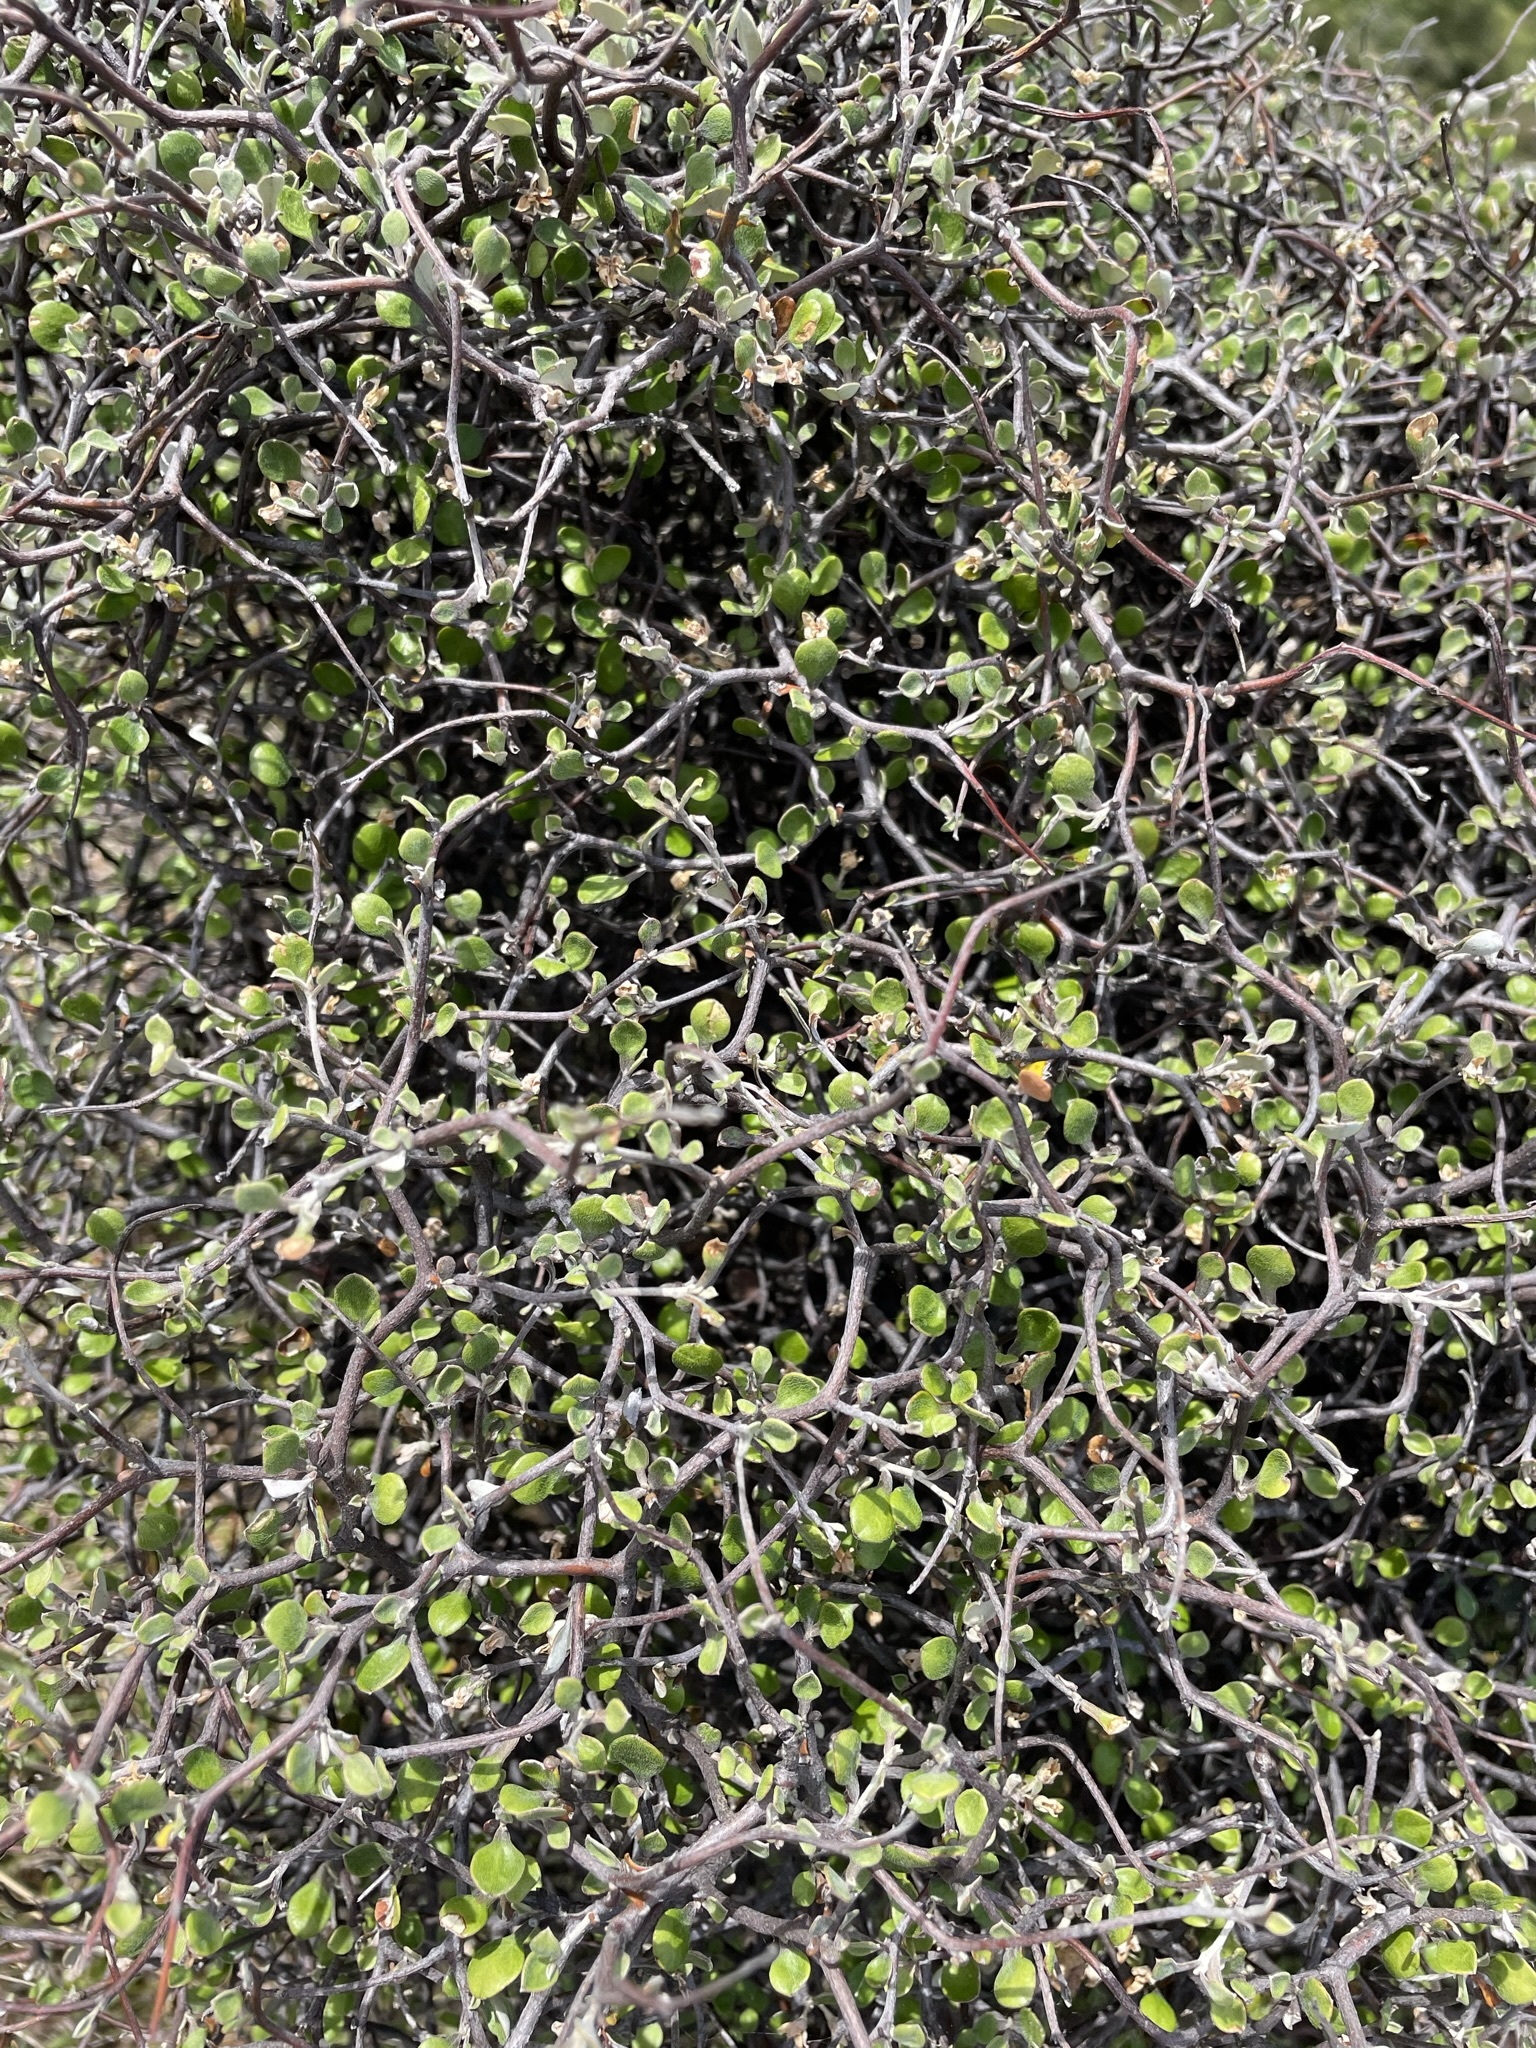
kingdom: Plantae
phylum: Tracheophyta
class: Magnoliopsida
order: Asterales
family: Argophyllaceae
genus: Corokia
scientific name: Corokia cotoneaster
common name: Wire nettingbush
